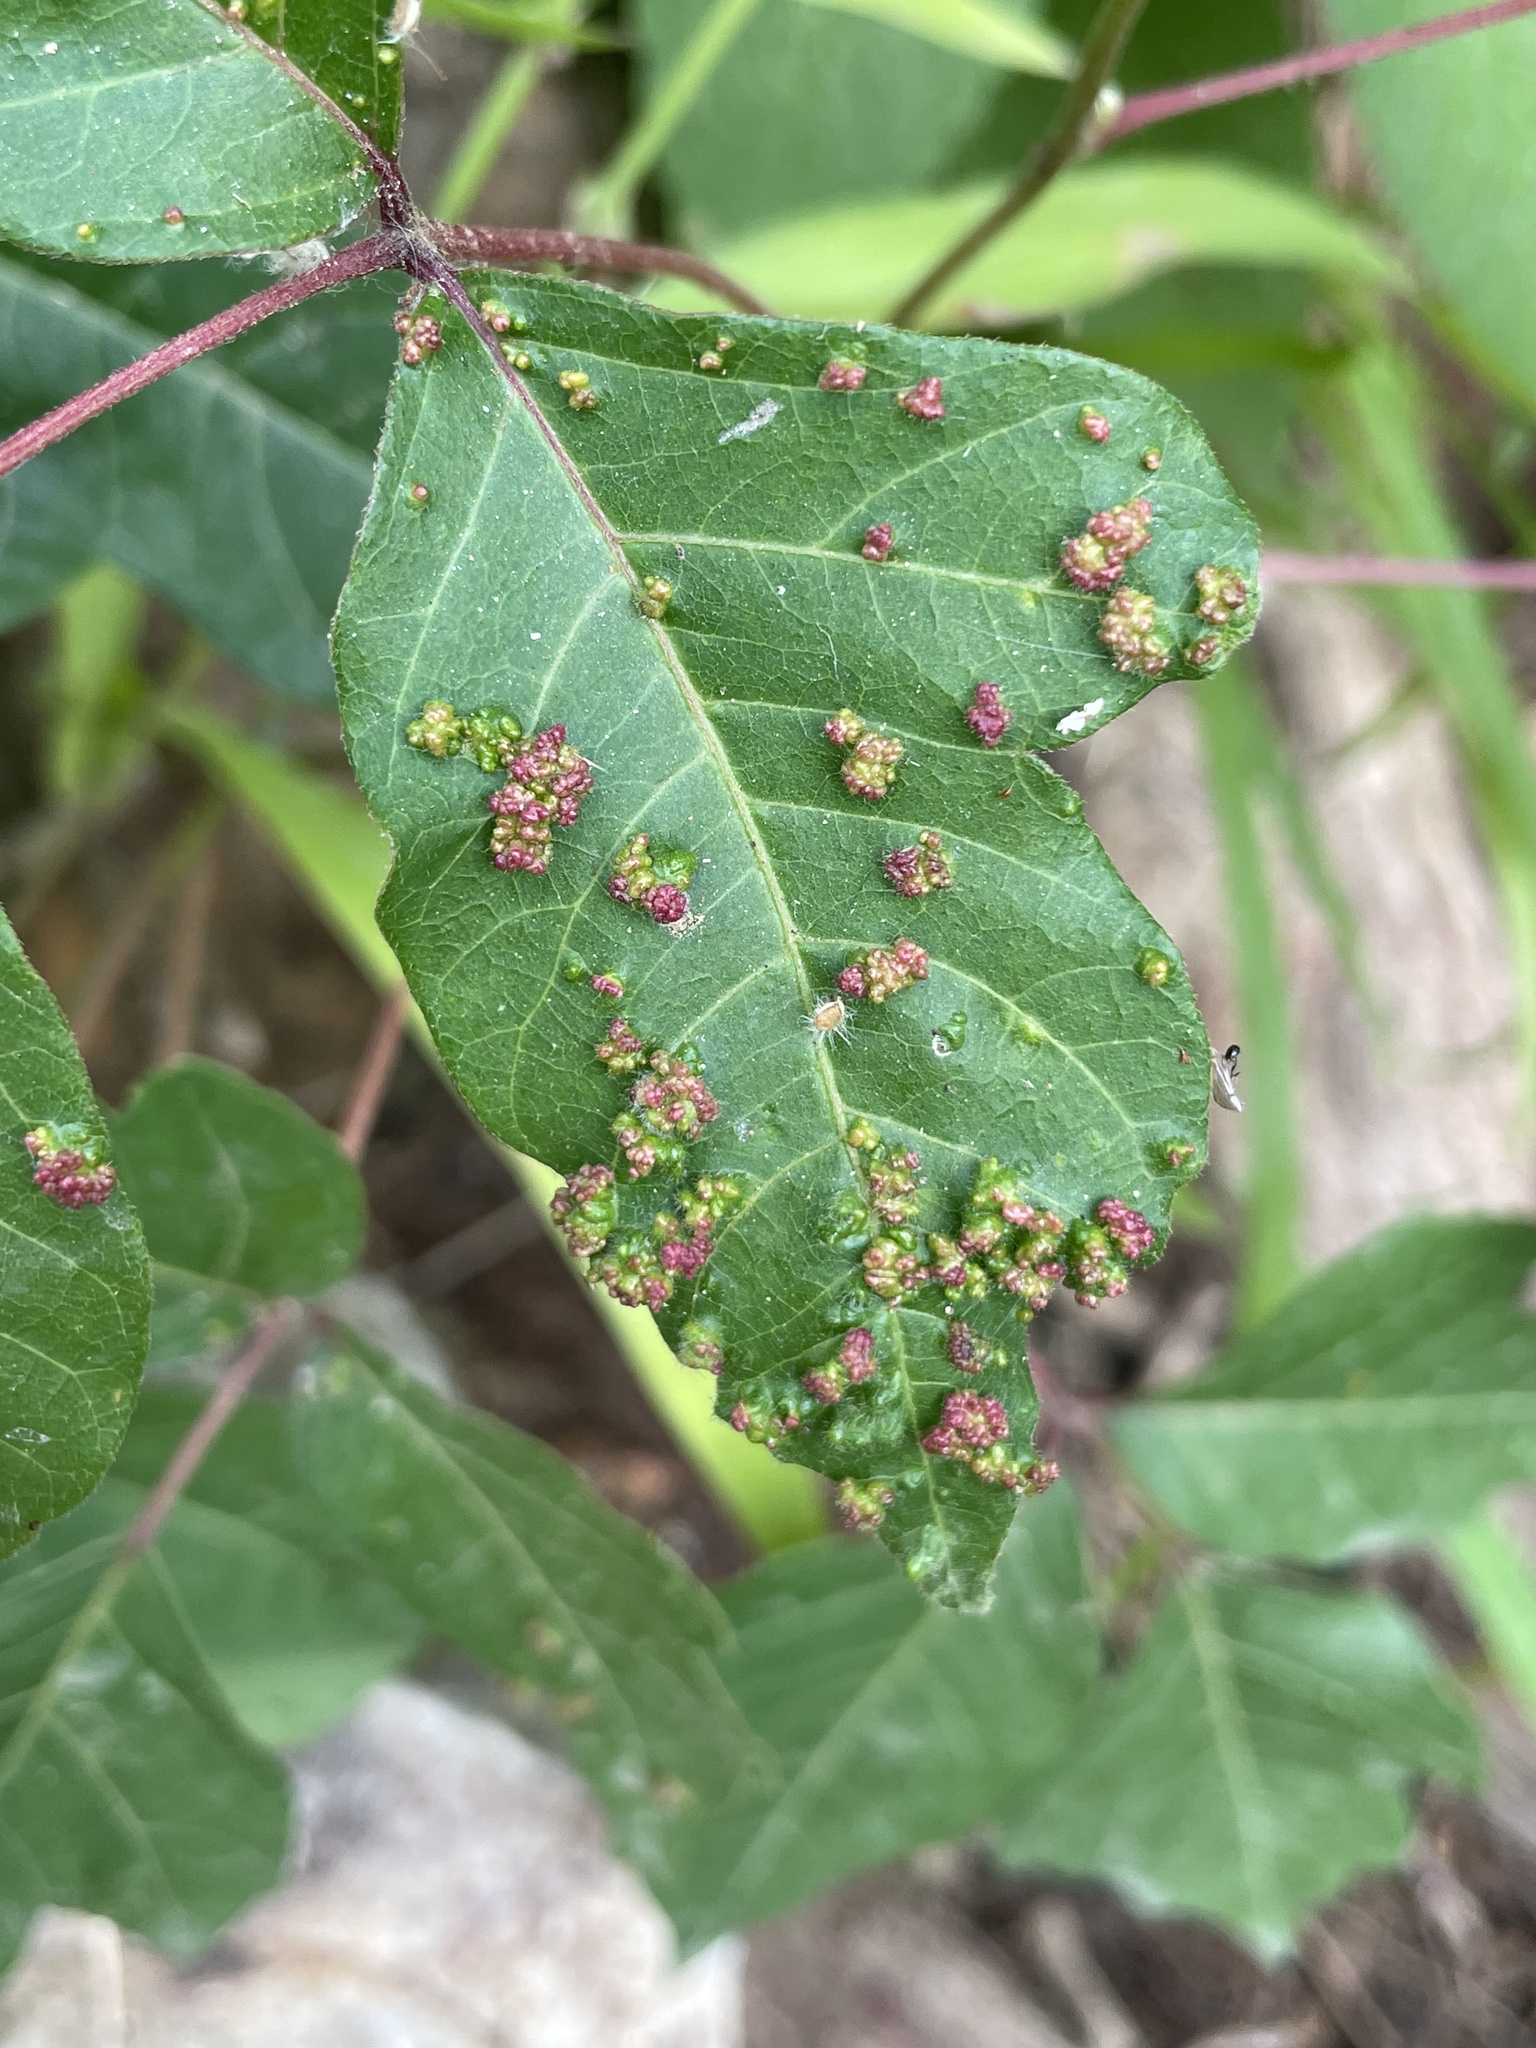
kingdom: Animalia
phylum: Arthropoda
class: Arachnida
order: Trombidiformes
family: Eriophyidae
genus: Aculops
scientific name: Aculops
